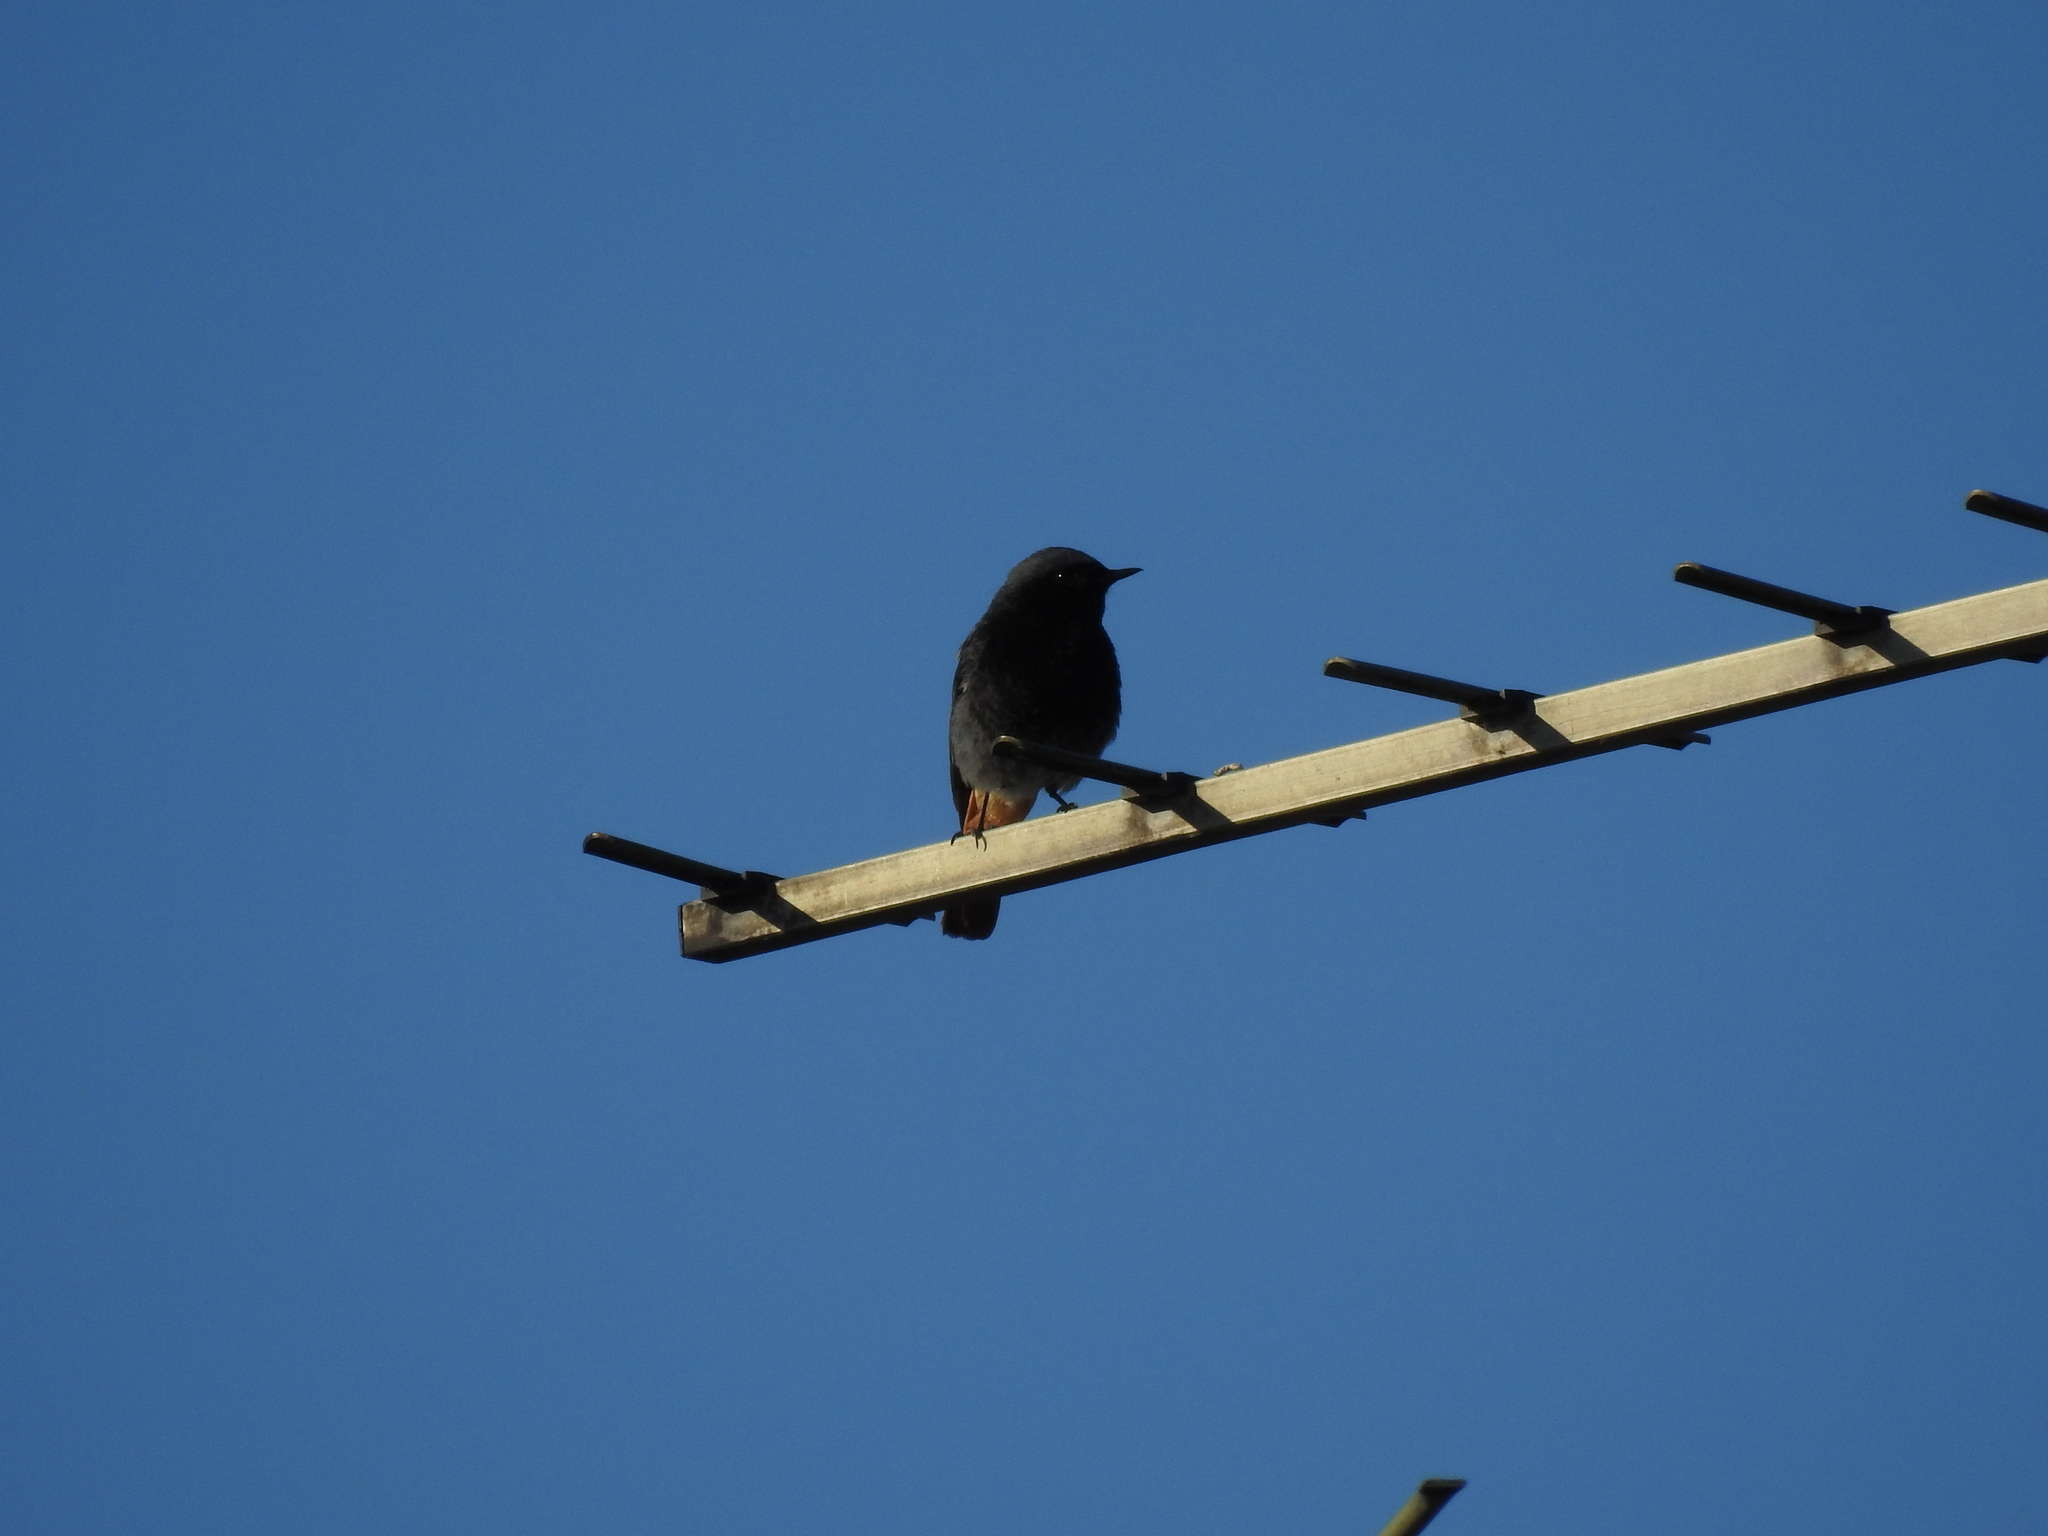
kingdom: Animalia
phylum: Chordata
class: Aves
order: Passeriformes
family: Muscicapidae
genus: Phoenicurus
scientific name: Phoenicurus ochruros
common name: Black redstart
